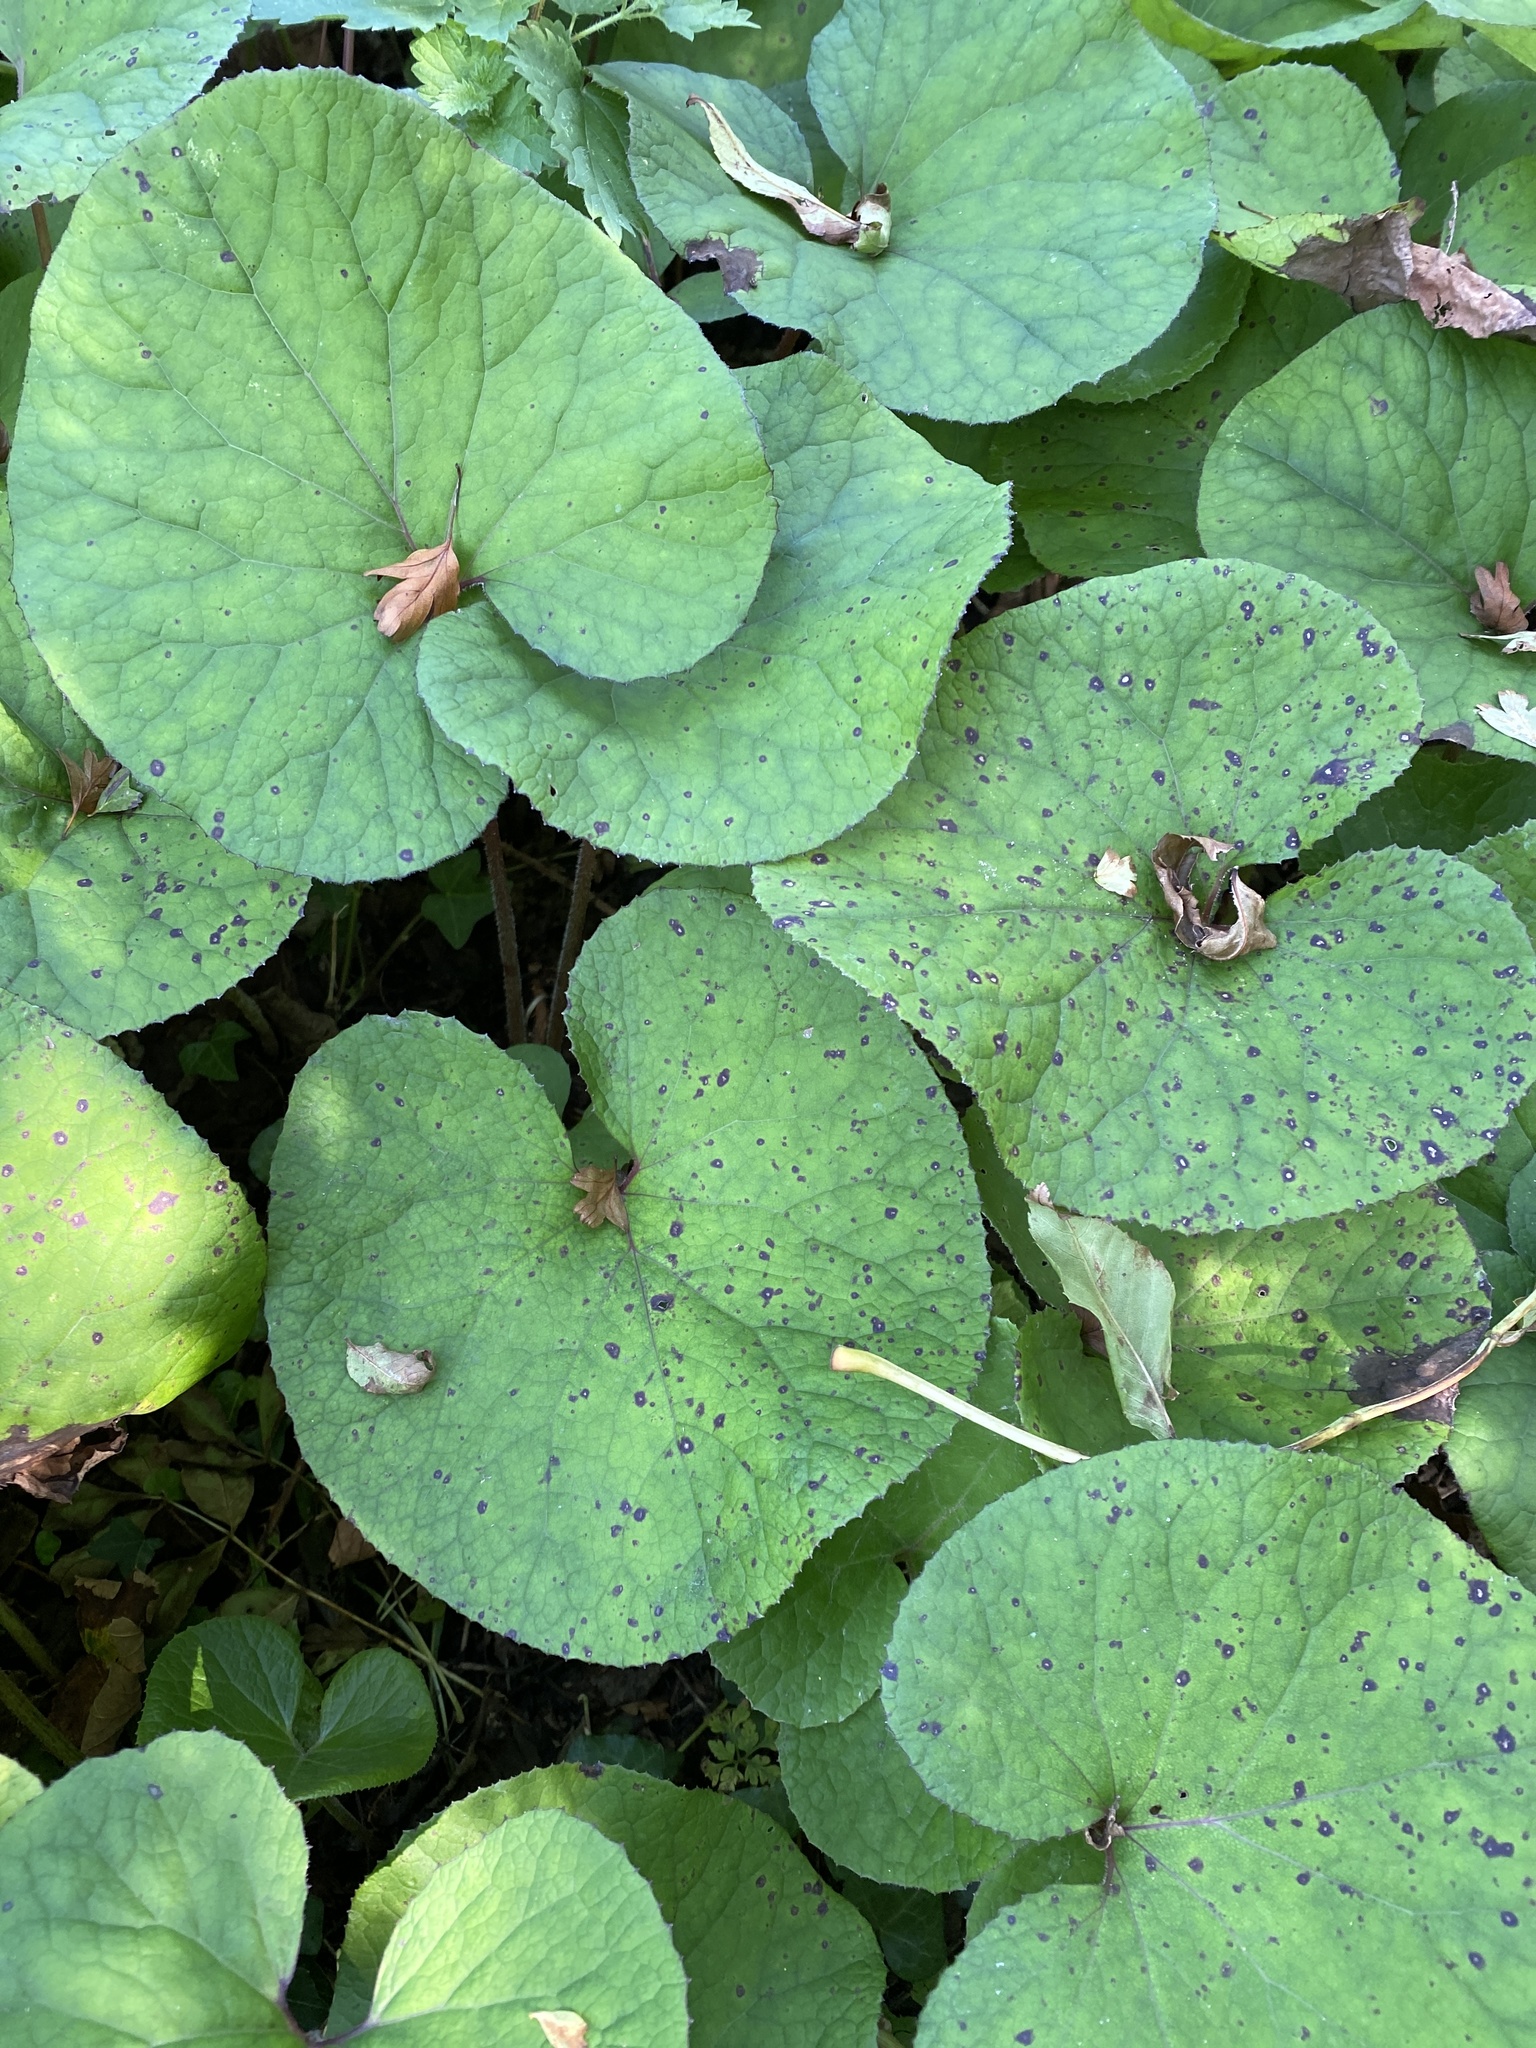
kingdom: Plantae
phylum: Tracheophyta
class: Magnoliopsida
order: Asterales
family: Asteraceae
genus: Petasites
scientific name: Petasites pyrenaicus
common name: Winter heliotrope
